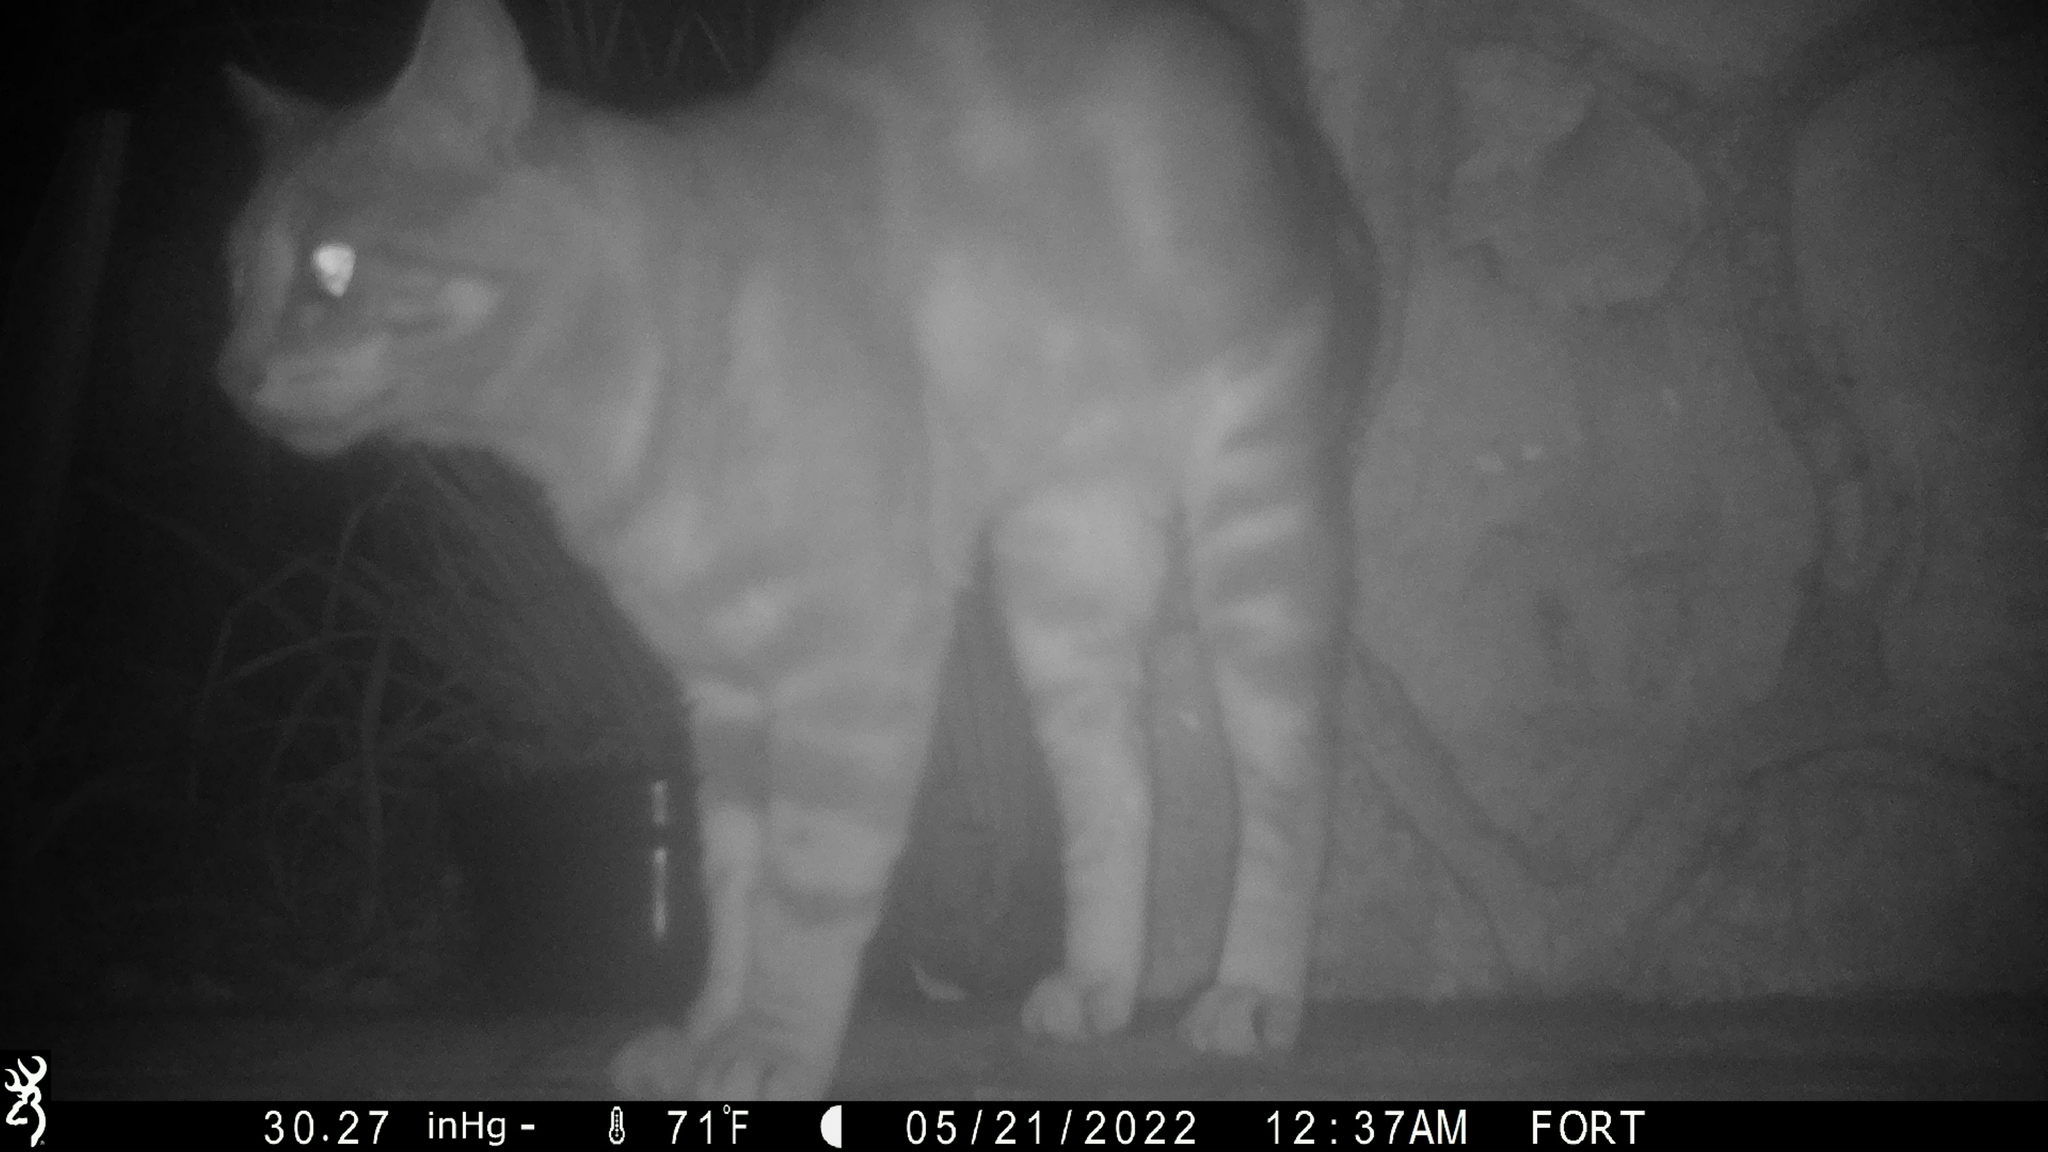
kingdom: Animalia
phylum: Chordata
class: Mammalia
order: Carnivora
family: Felidae
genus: Felis
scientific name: Felis catus
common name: Domestic cat
